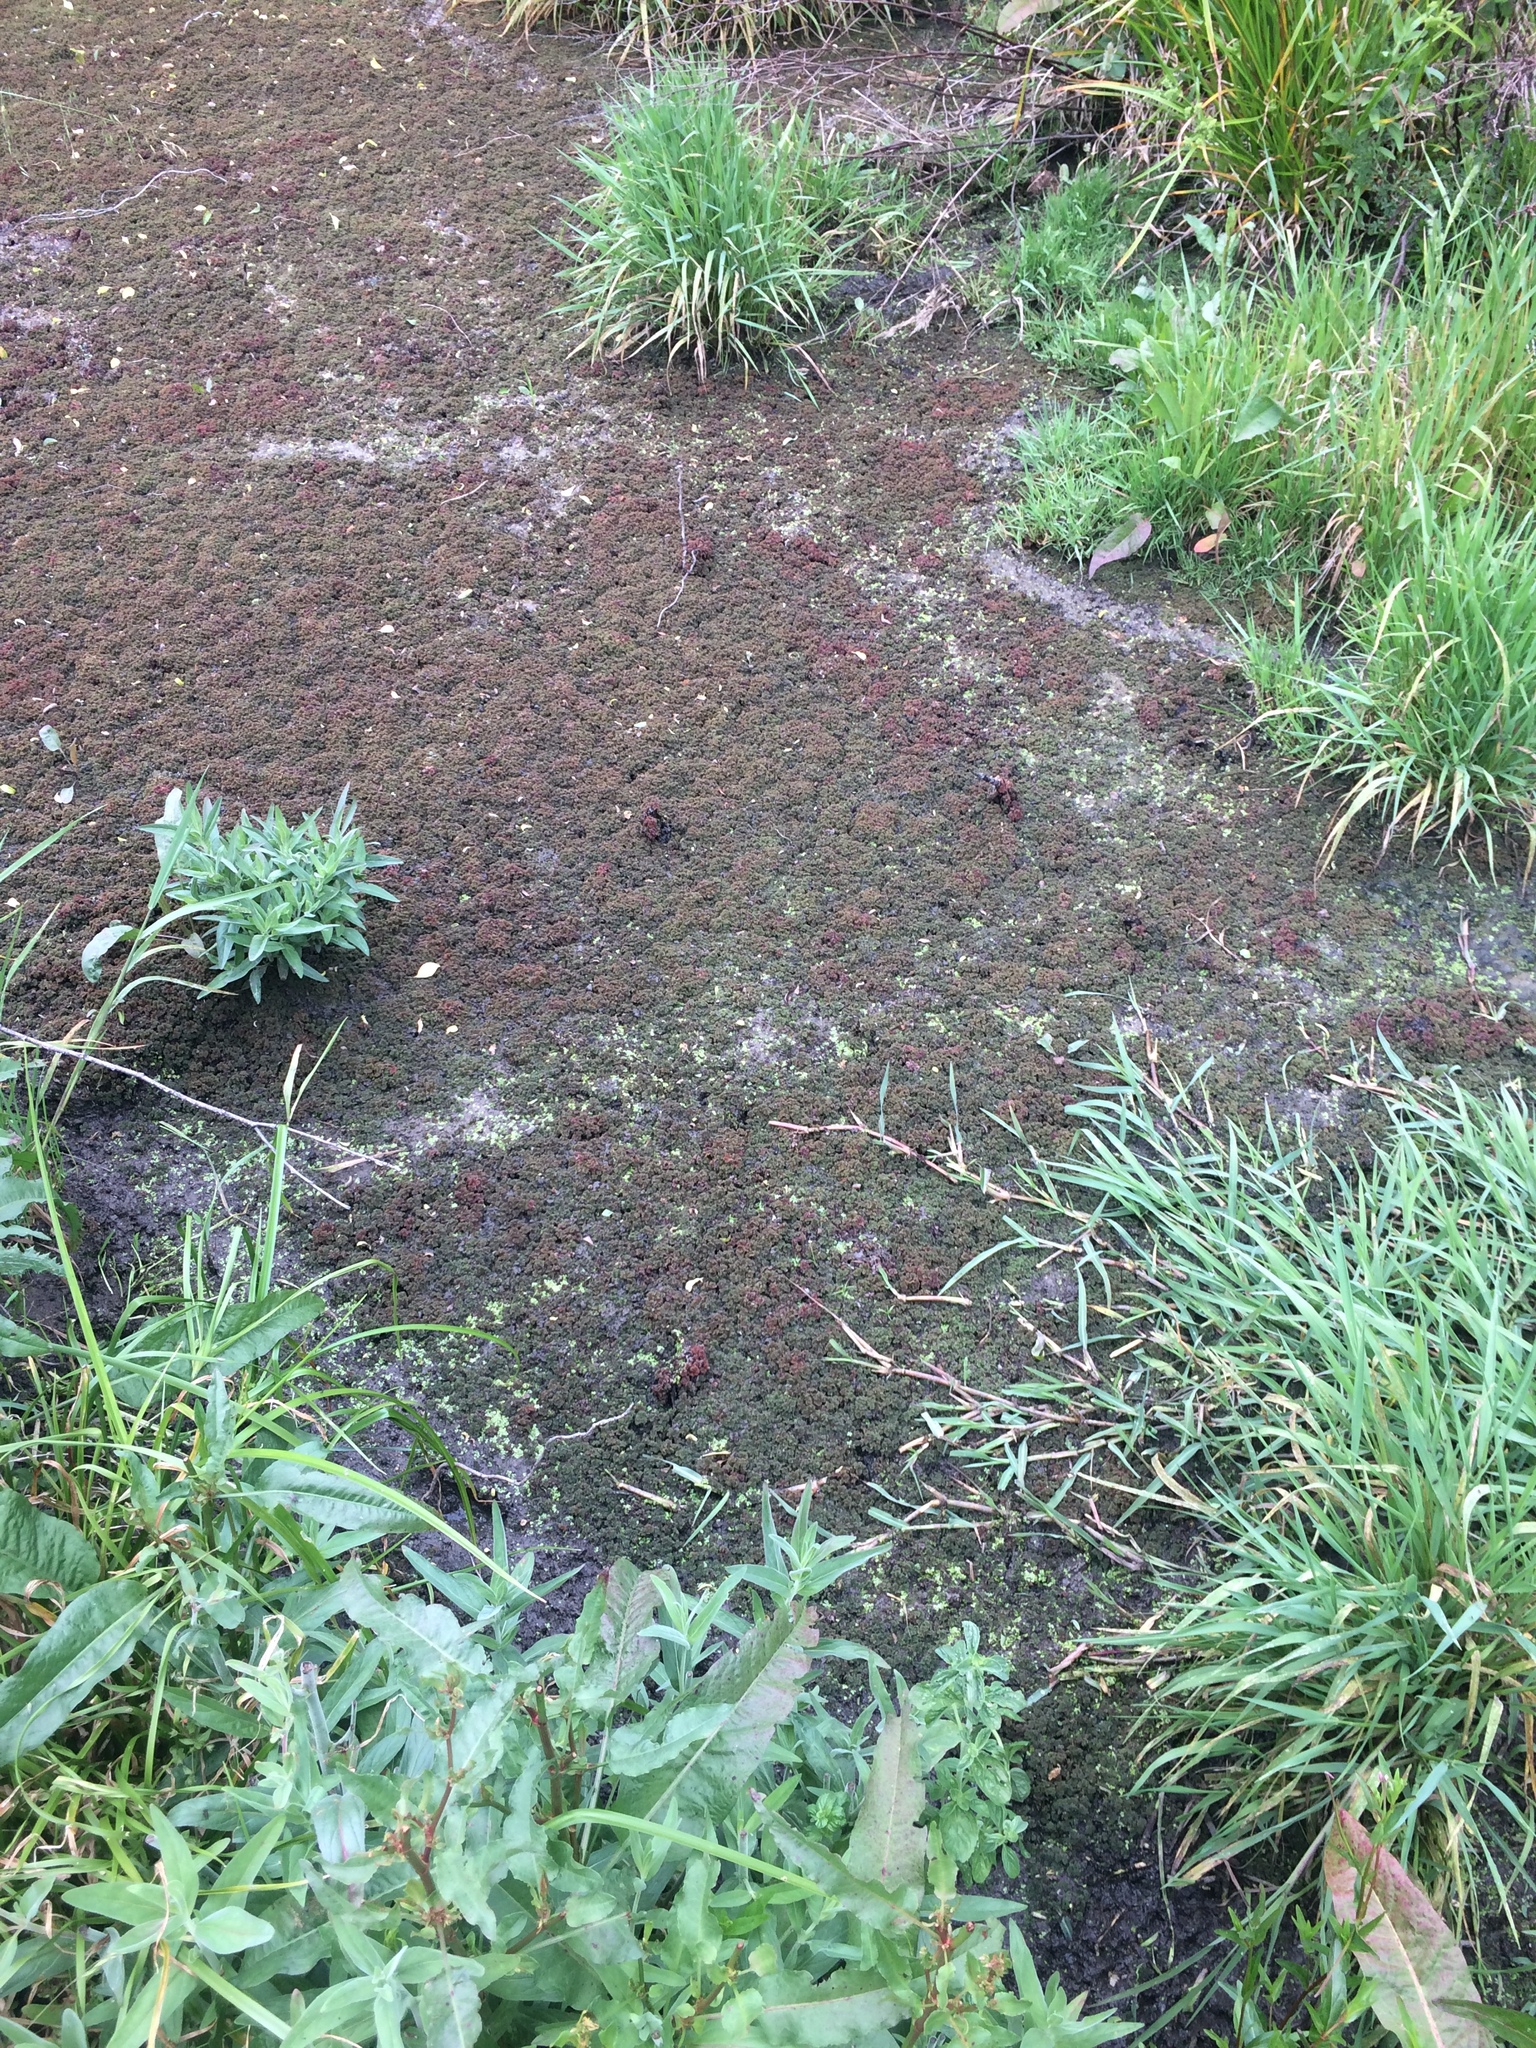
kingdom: Plantae
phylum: Tracheophyta
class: Polypodiopsida
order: Salviniales
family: Salviniaceae
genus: Azolla
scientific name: Azolla filiculoides
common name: Water fern
